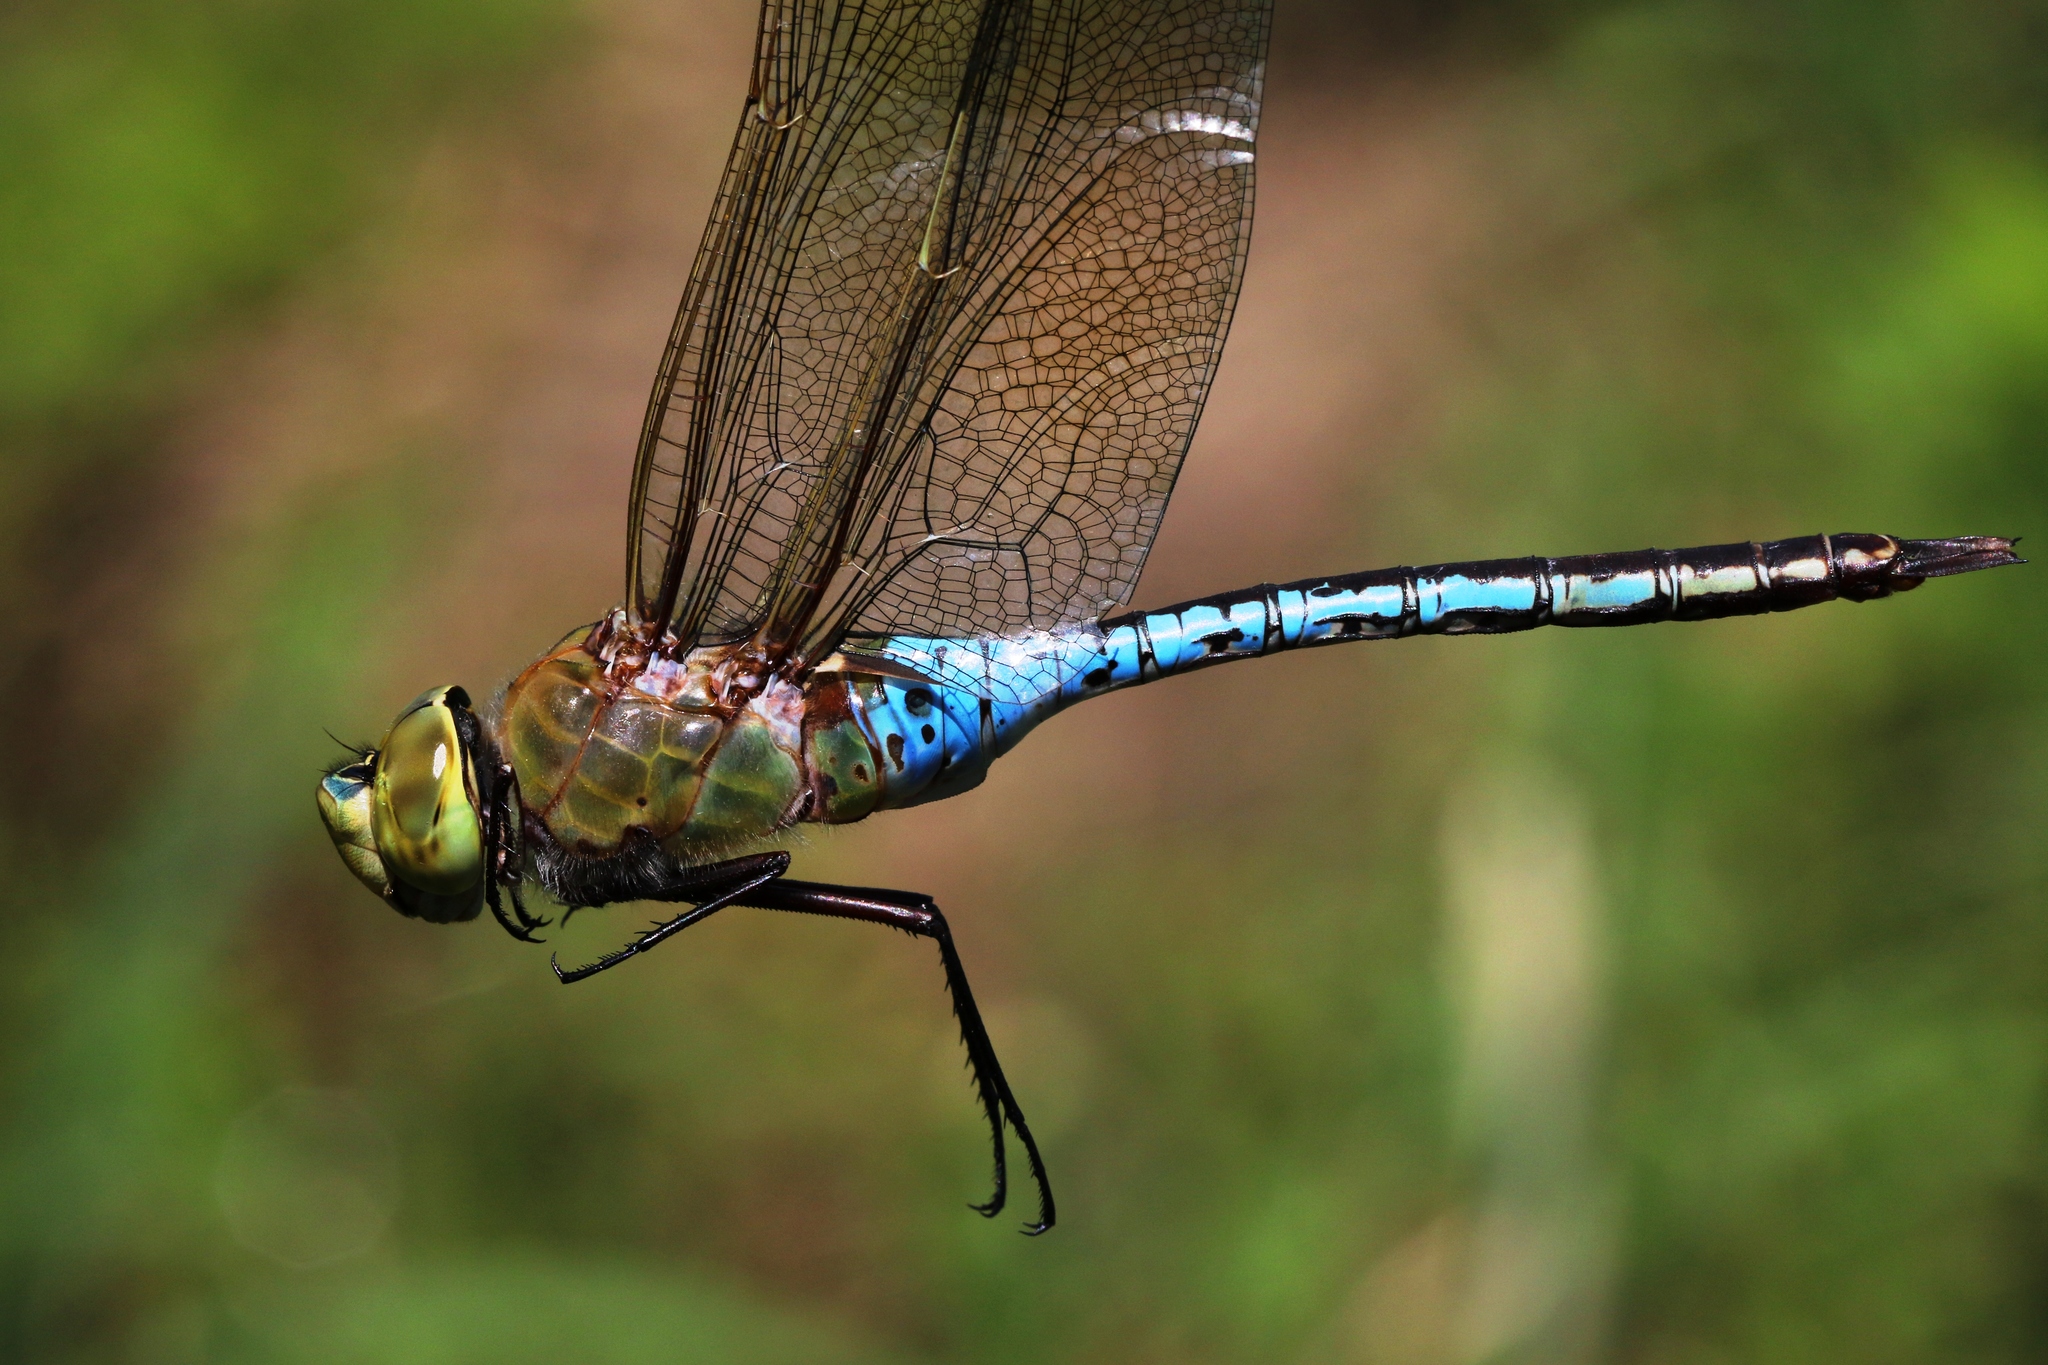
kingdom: Animalia
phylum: Arthropoda
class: Insecta
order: Odonata
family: Aeshnidae
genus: Anax
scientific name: Anax junius
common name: Common green darner
